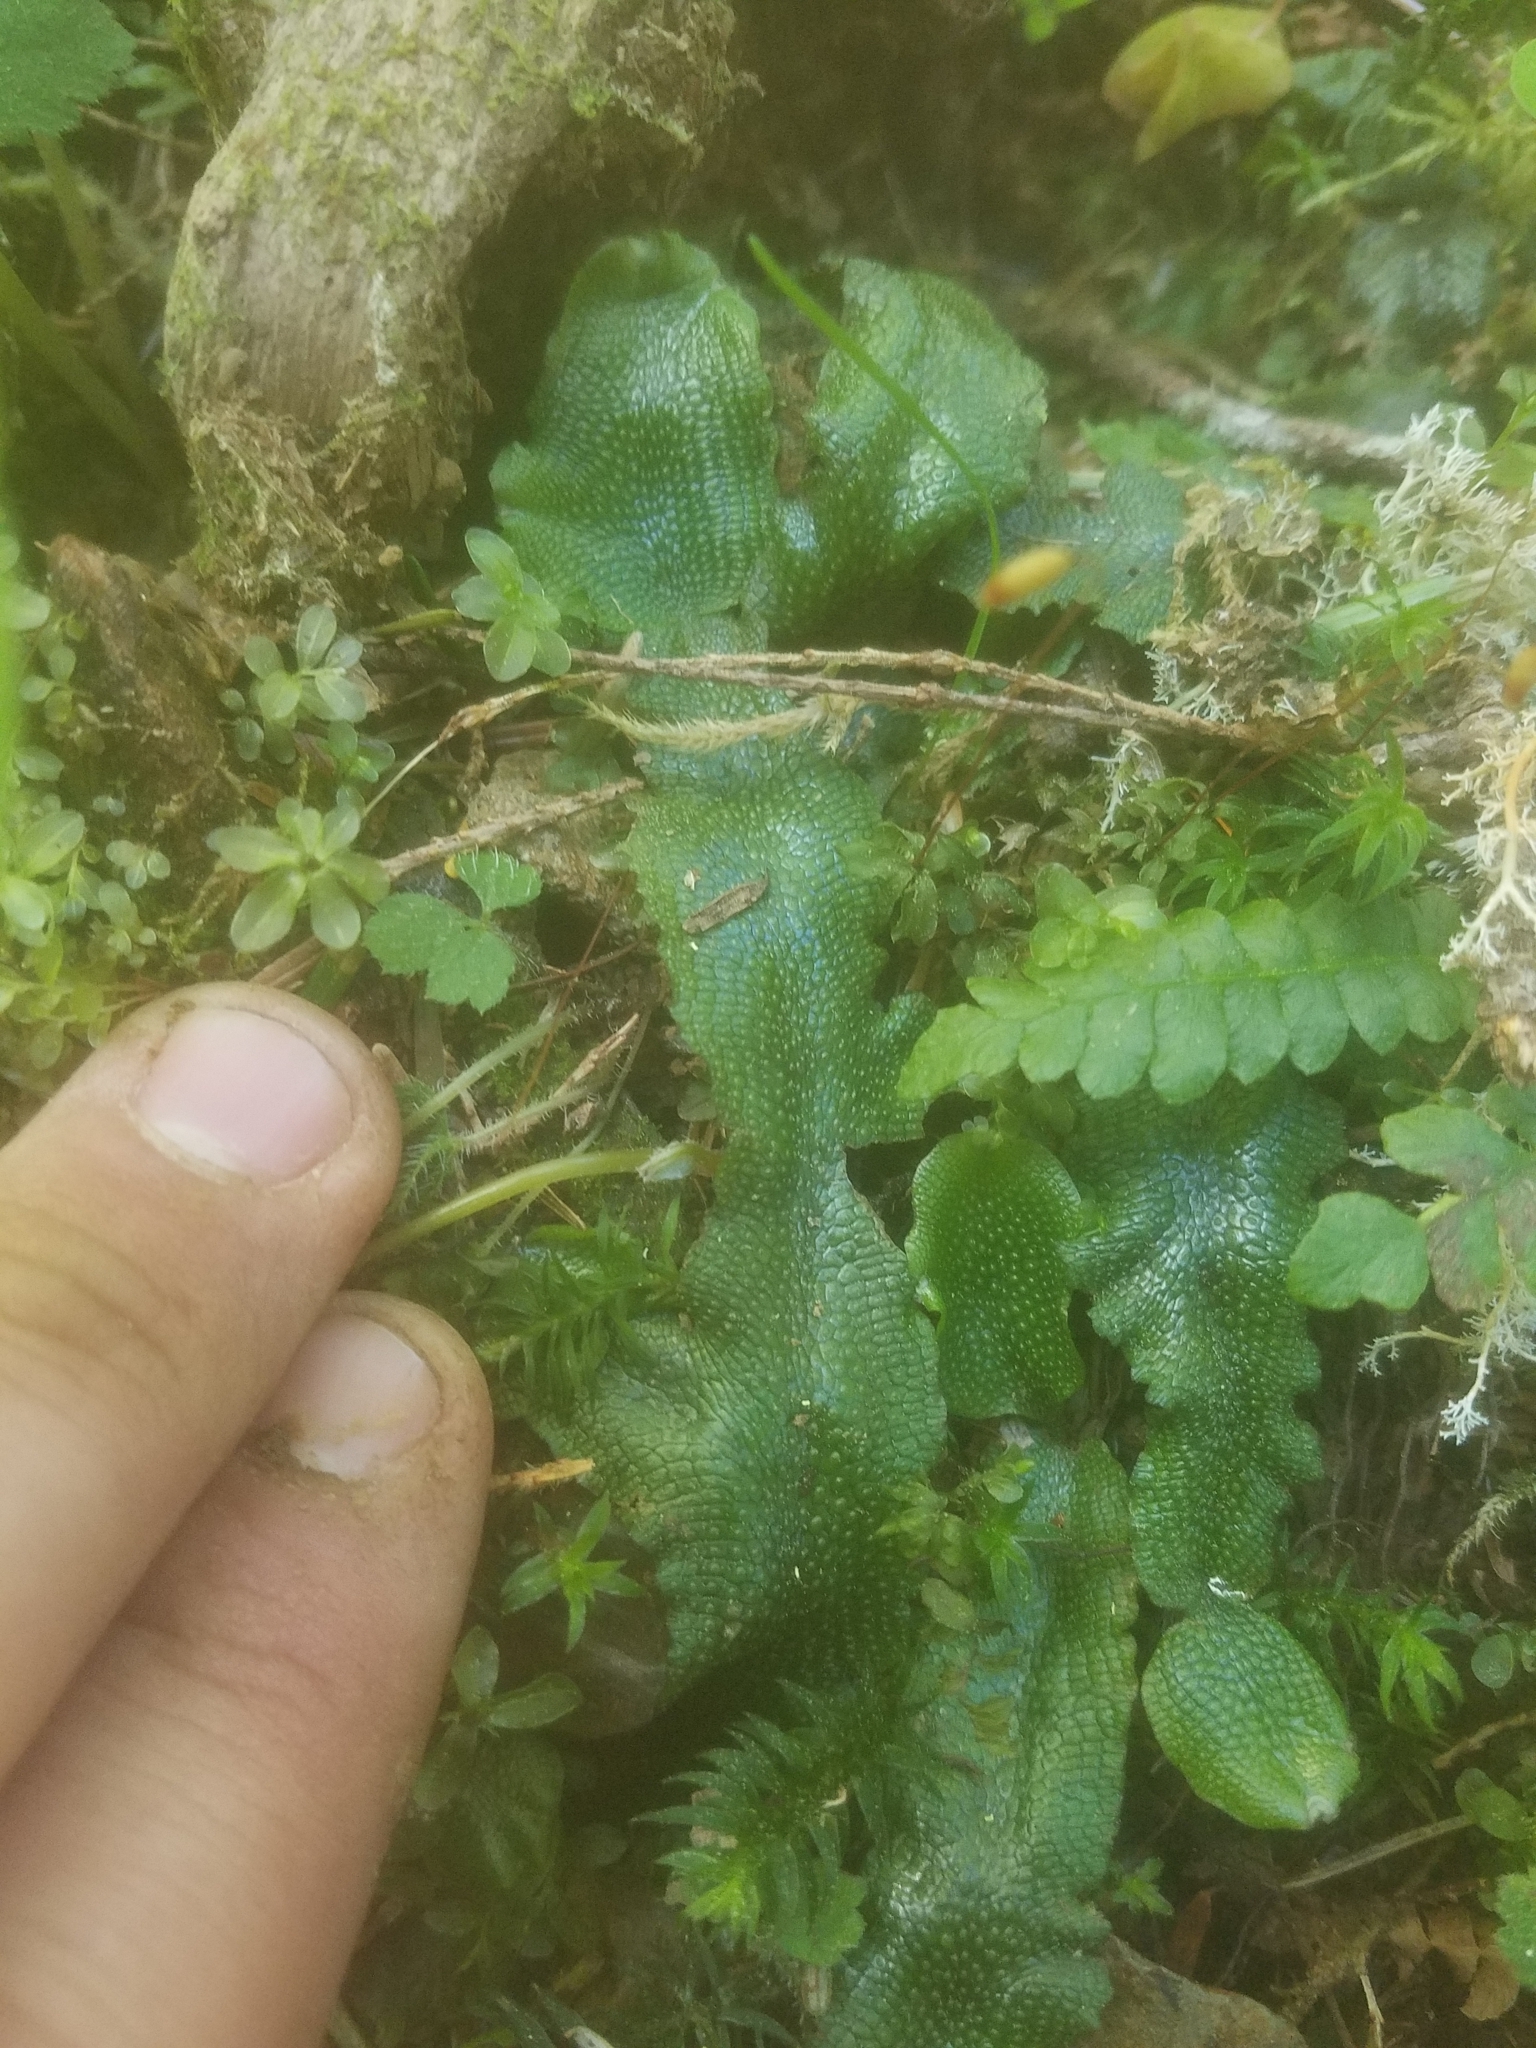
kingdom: Plantae
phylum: Marchantiophyta
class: Marchantiopsida
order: Marchantiales
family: Conocephalaceae
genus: Conocephalum
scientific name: Conocephalum conicum
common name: Great scented liverwort
